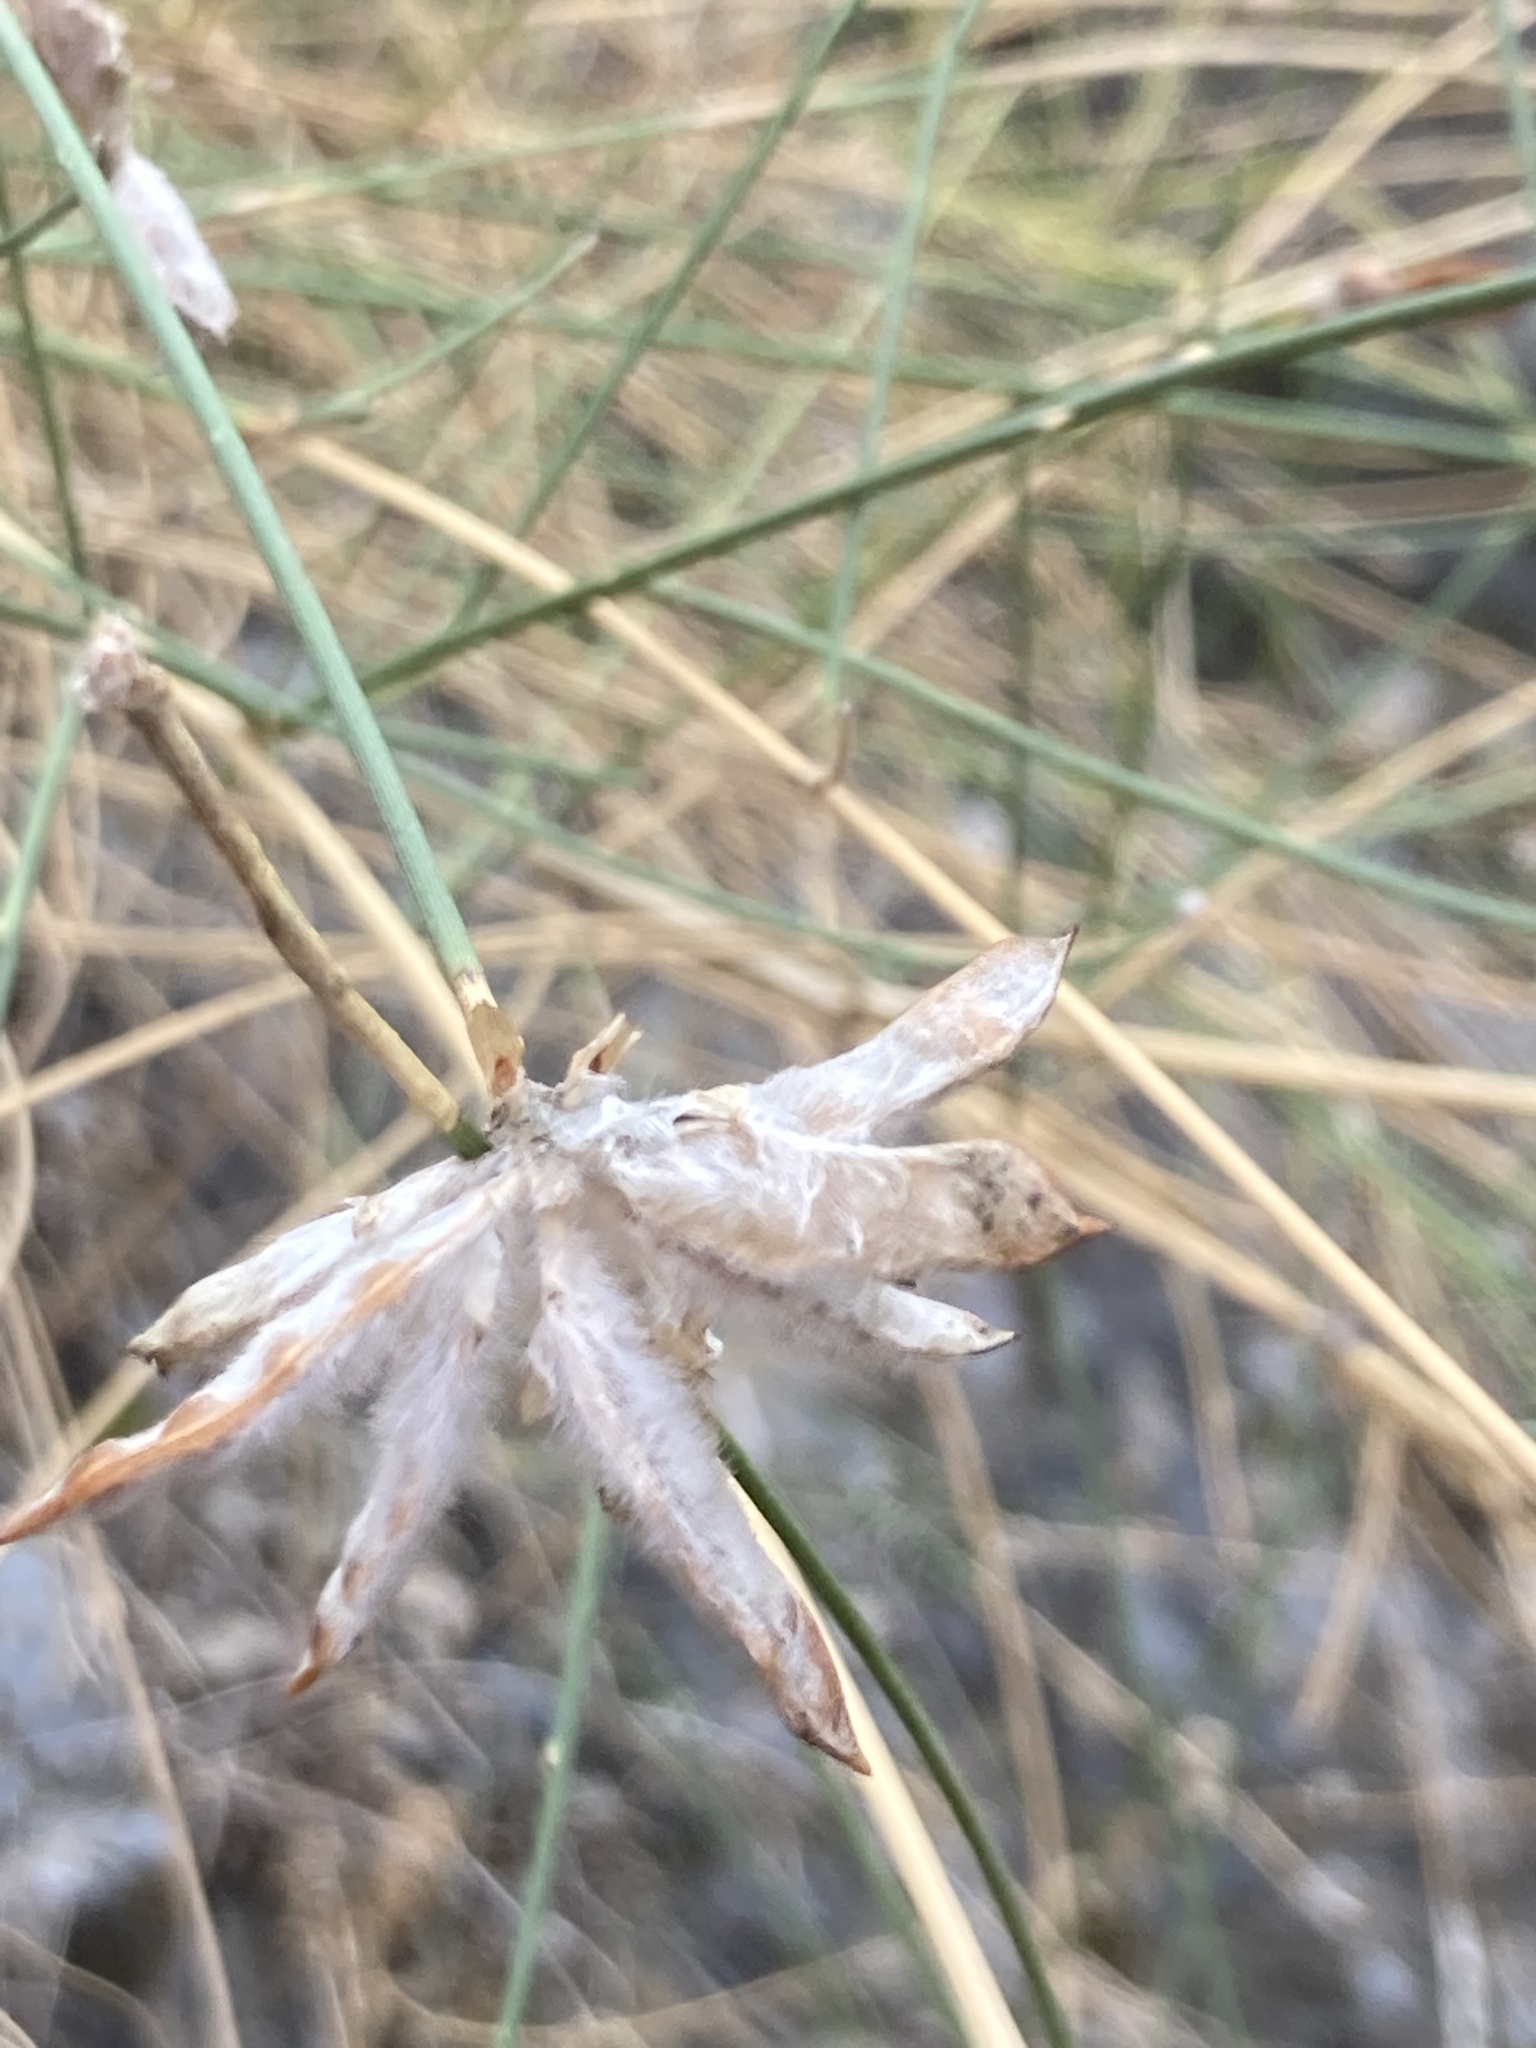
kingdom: Plantae
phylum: Tracheophyta
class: Magnoliopsida
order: Fabales
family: Fabaceae
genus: Genista
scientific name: Genista umbellata
